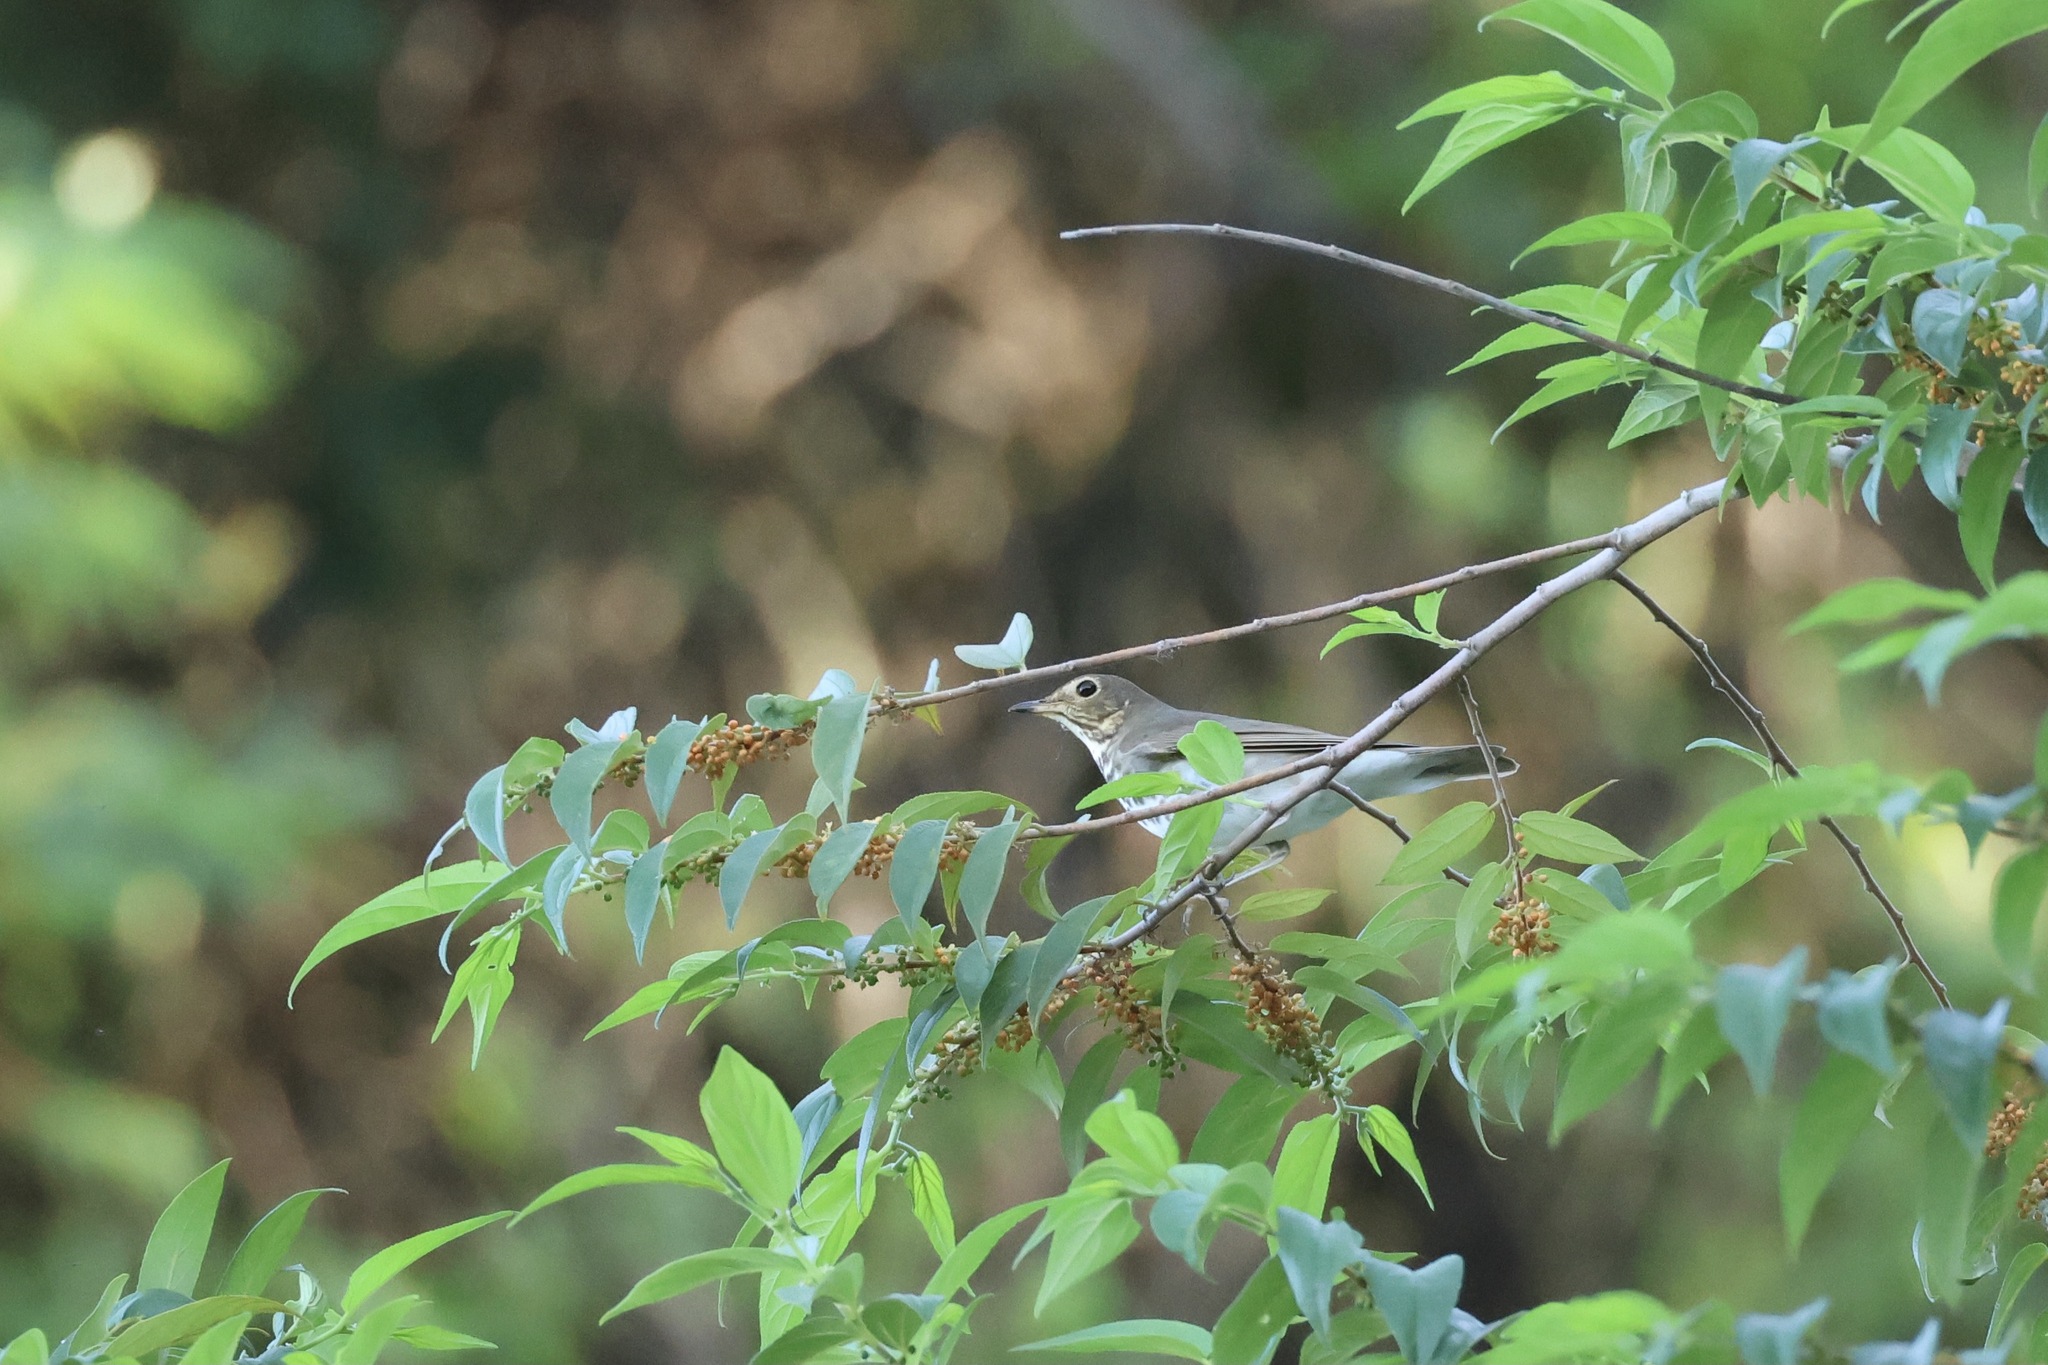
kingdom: Animalia
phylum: Chordata
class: Aves
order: Passeriformes
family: Turdidae
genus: Catharus
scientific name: Catharus ustulatus
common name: Swainson's thrush
